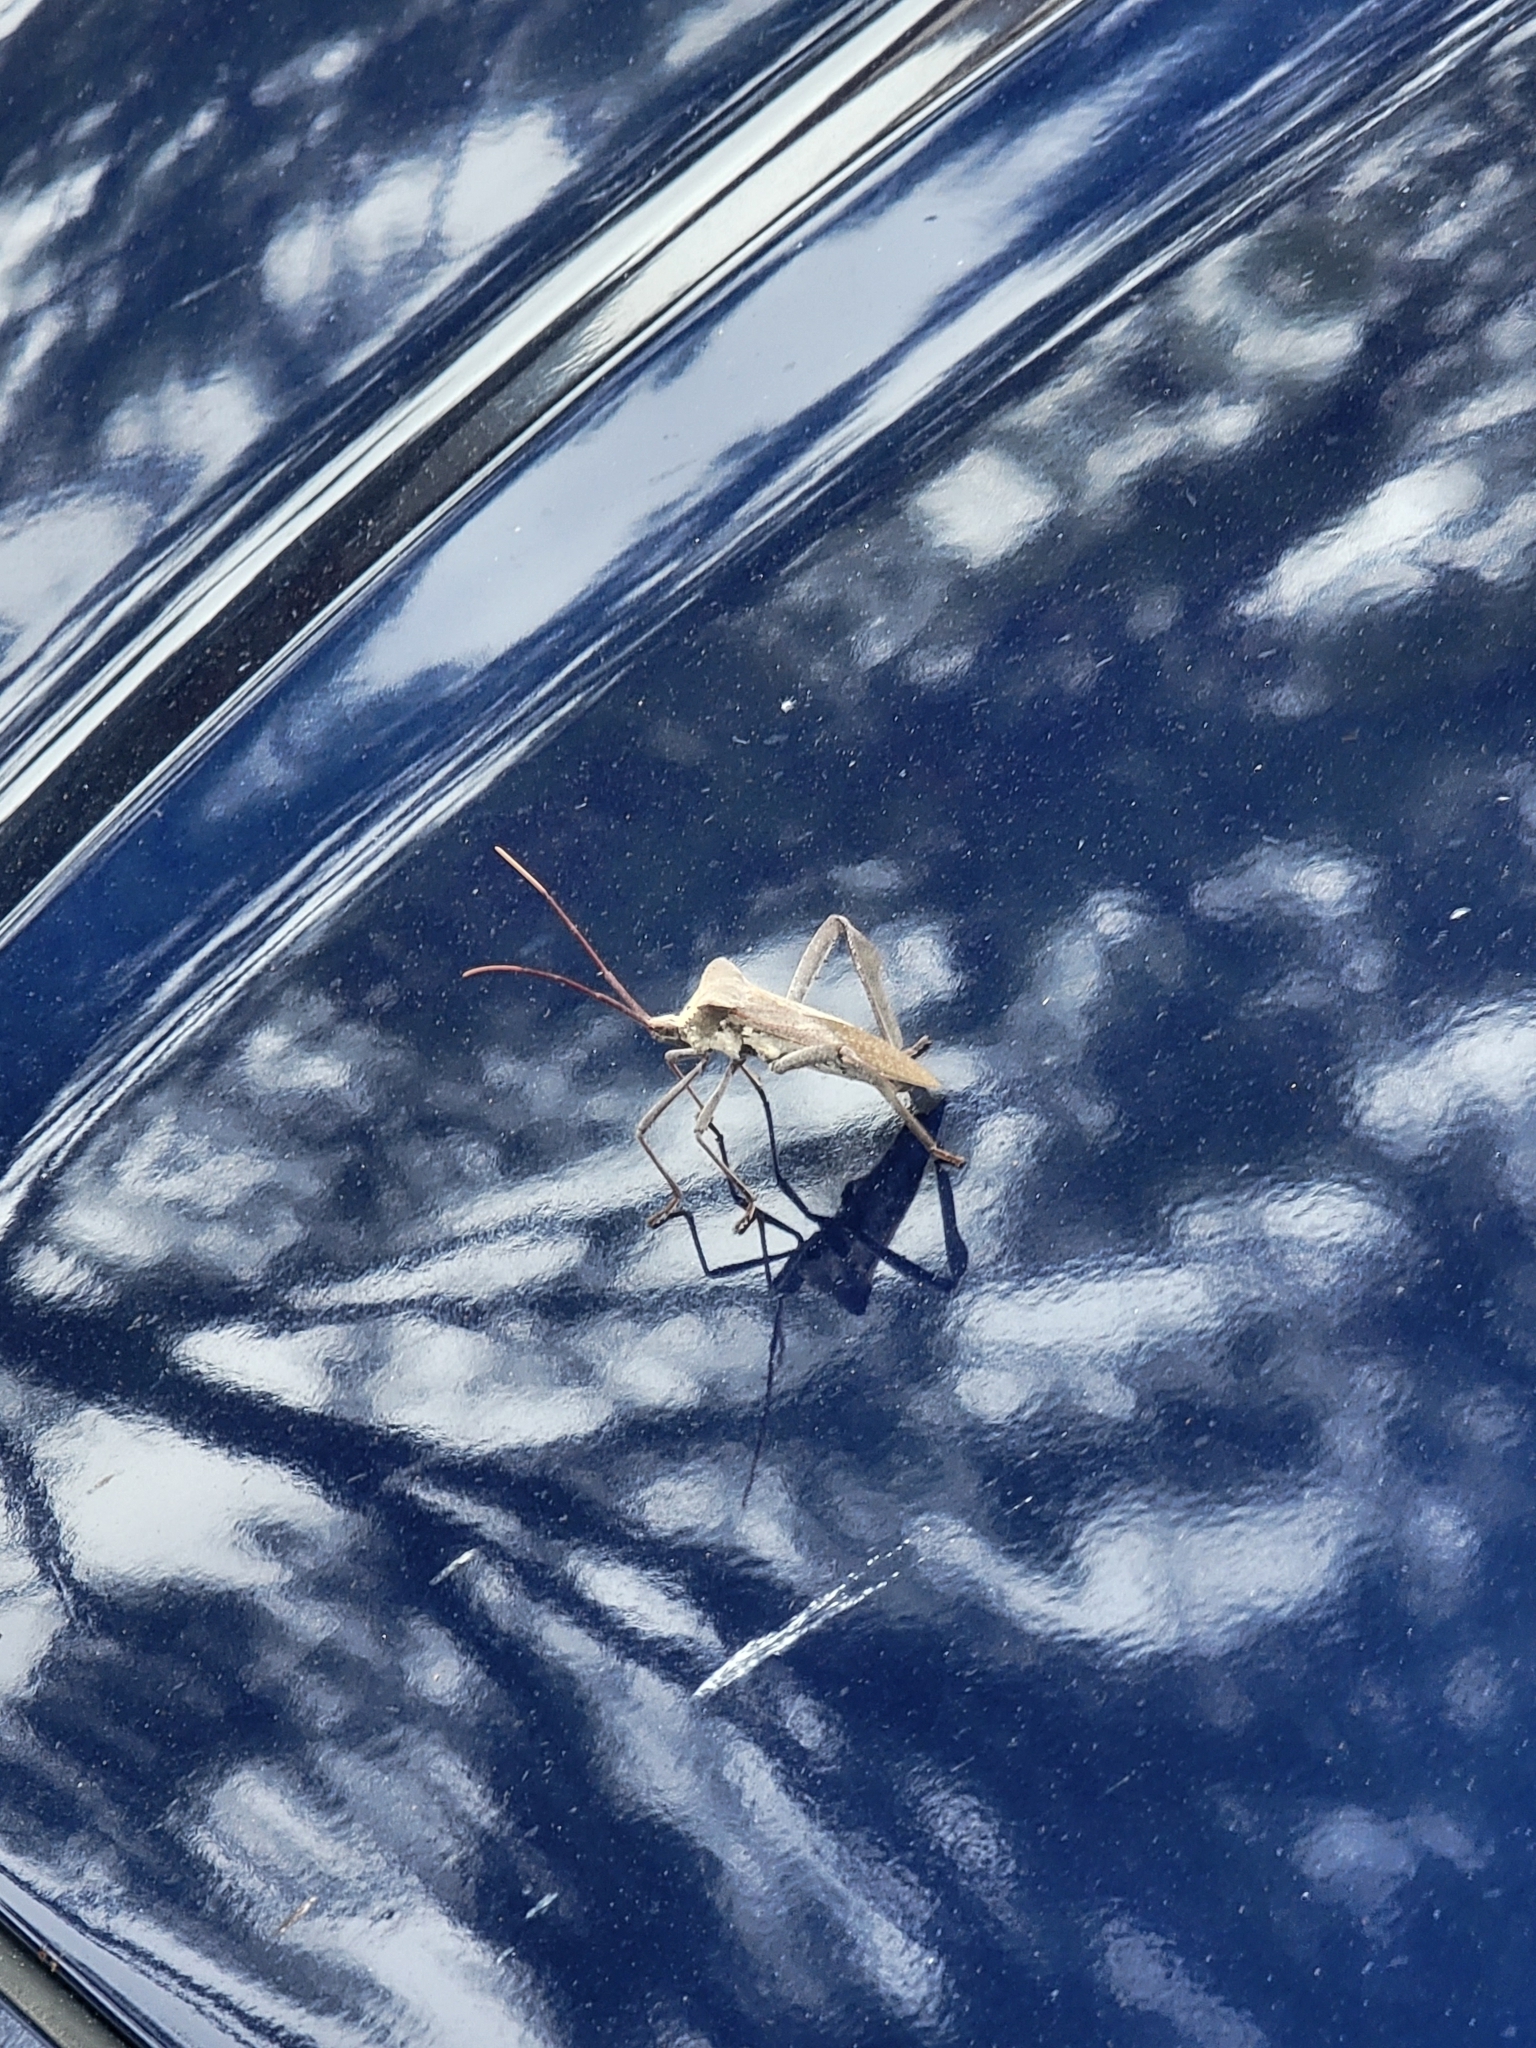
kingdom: Animalia
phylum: Arthropoda
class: Insecta
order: Hemiptera
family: Coreidae
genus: Acanthocephala
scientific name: Acanthocephala declivis
